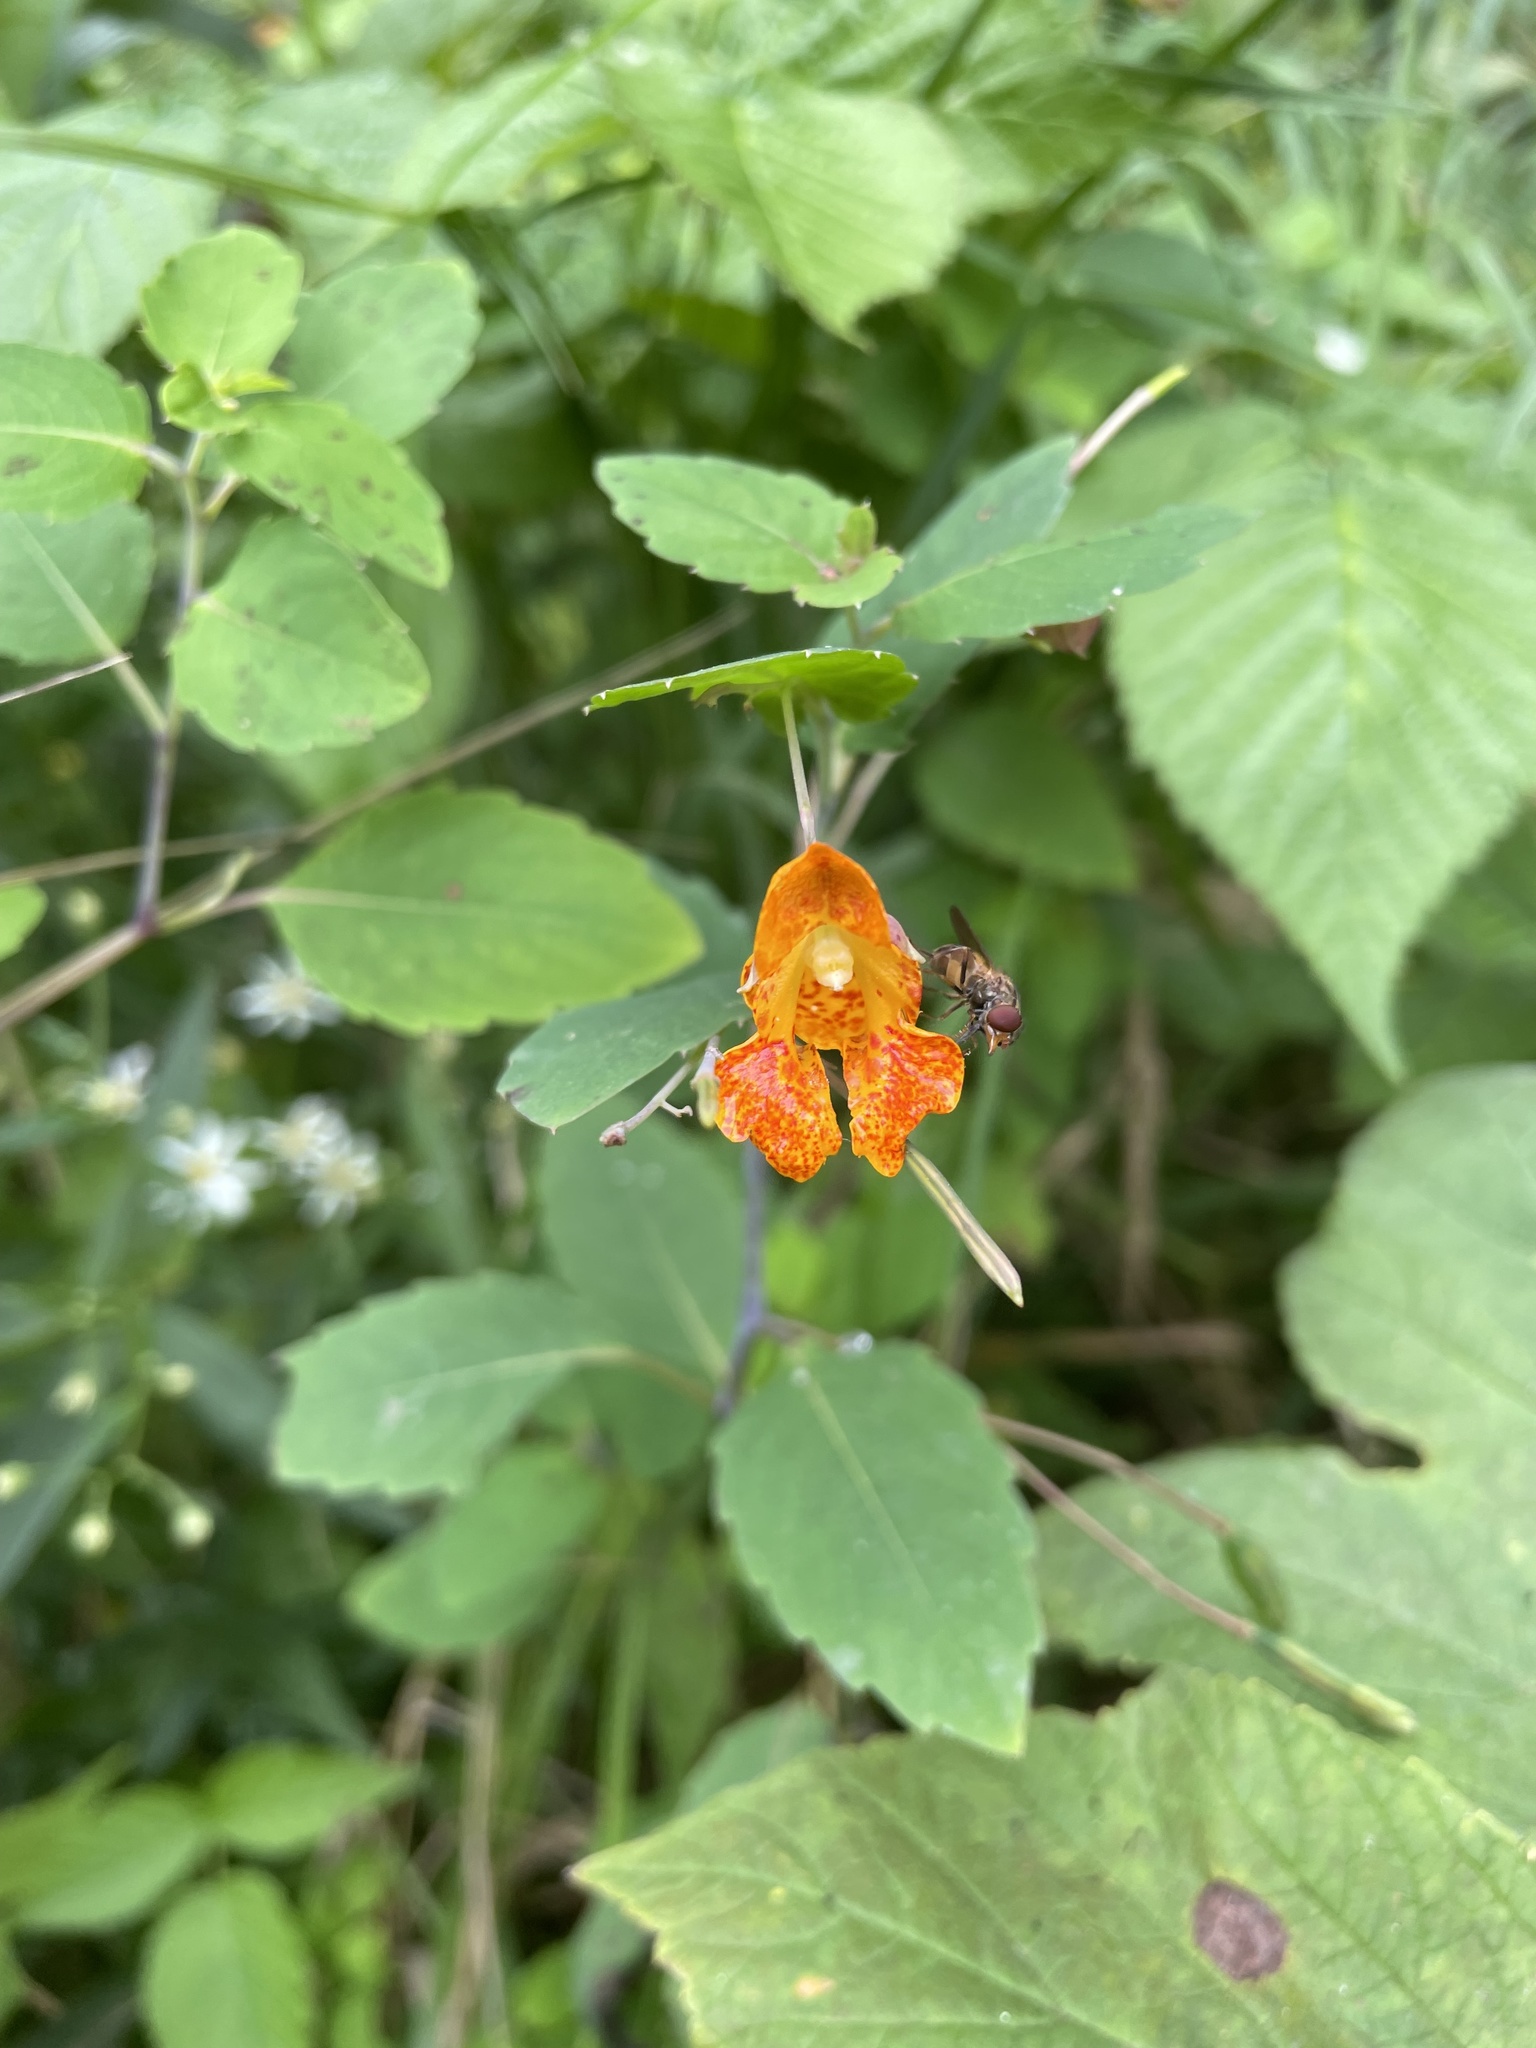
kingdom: Plantae
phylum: Tracheophyta
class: Magnoliopsida
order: Ericales
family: Balsaminaceae
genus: Impatiens
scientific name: Impatiens capensis
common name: Orange balsam
